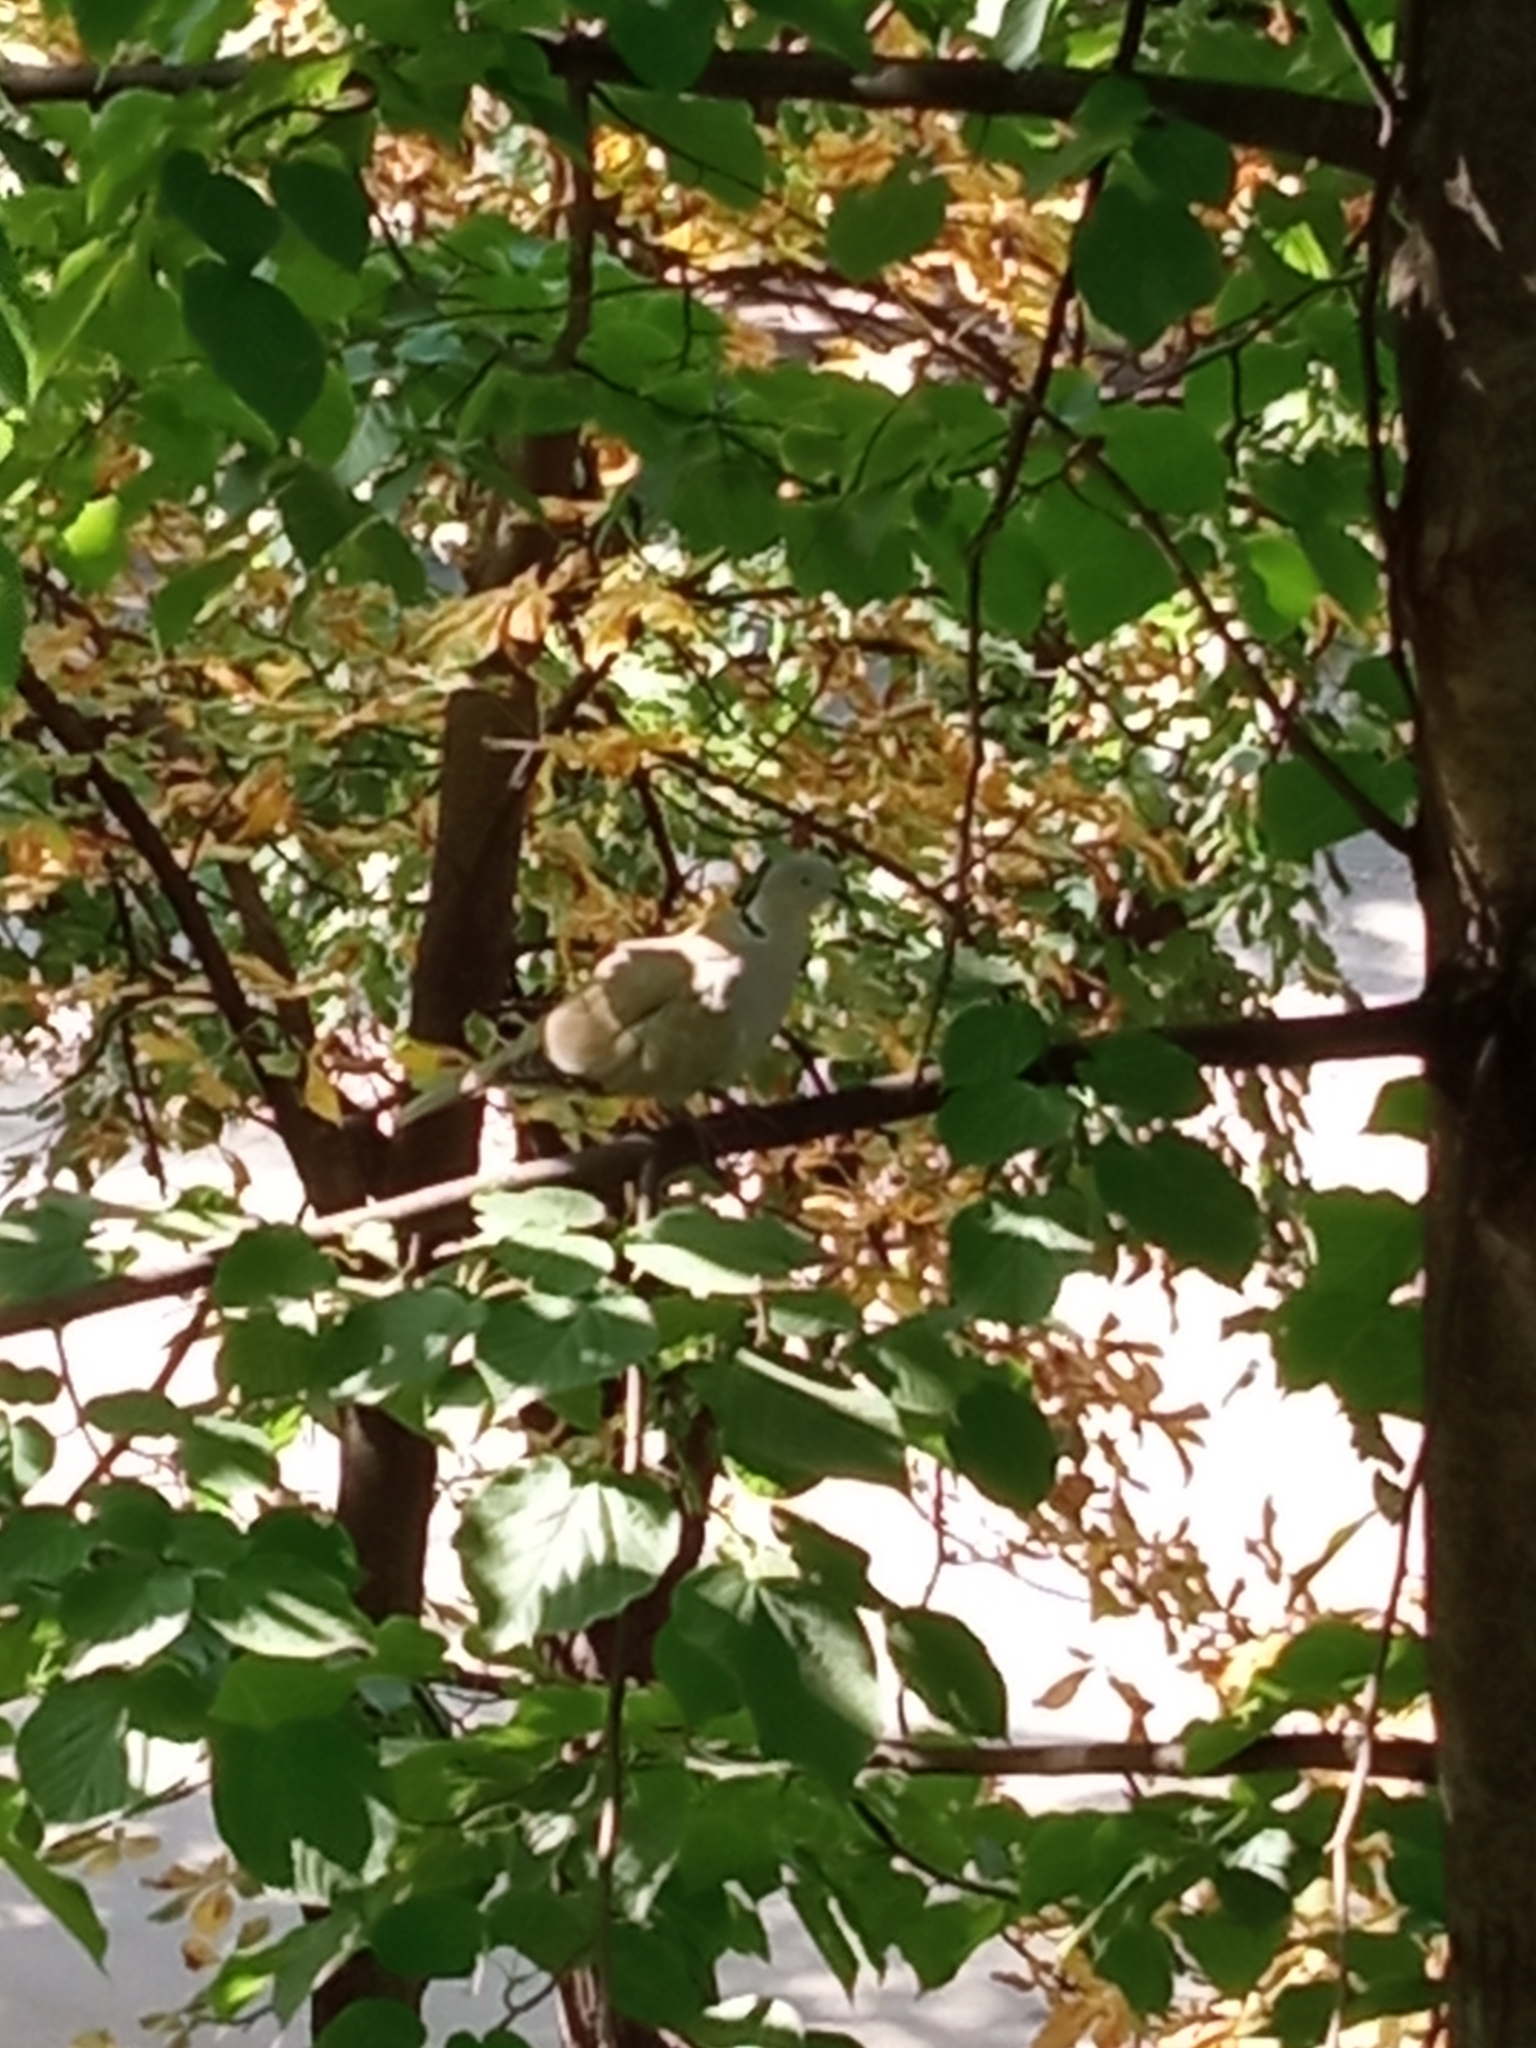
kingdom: Animalia
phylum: Chordata
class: Aves
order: Columbiformes
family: Columbidae
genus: Streptopelia
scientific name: Streptopelia decaocto
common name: Eurasian collared dove
